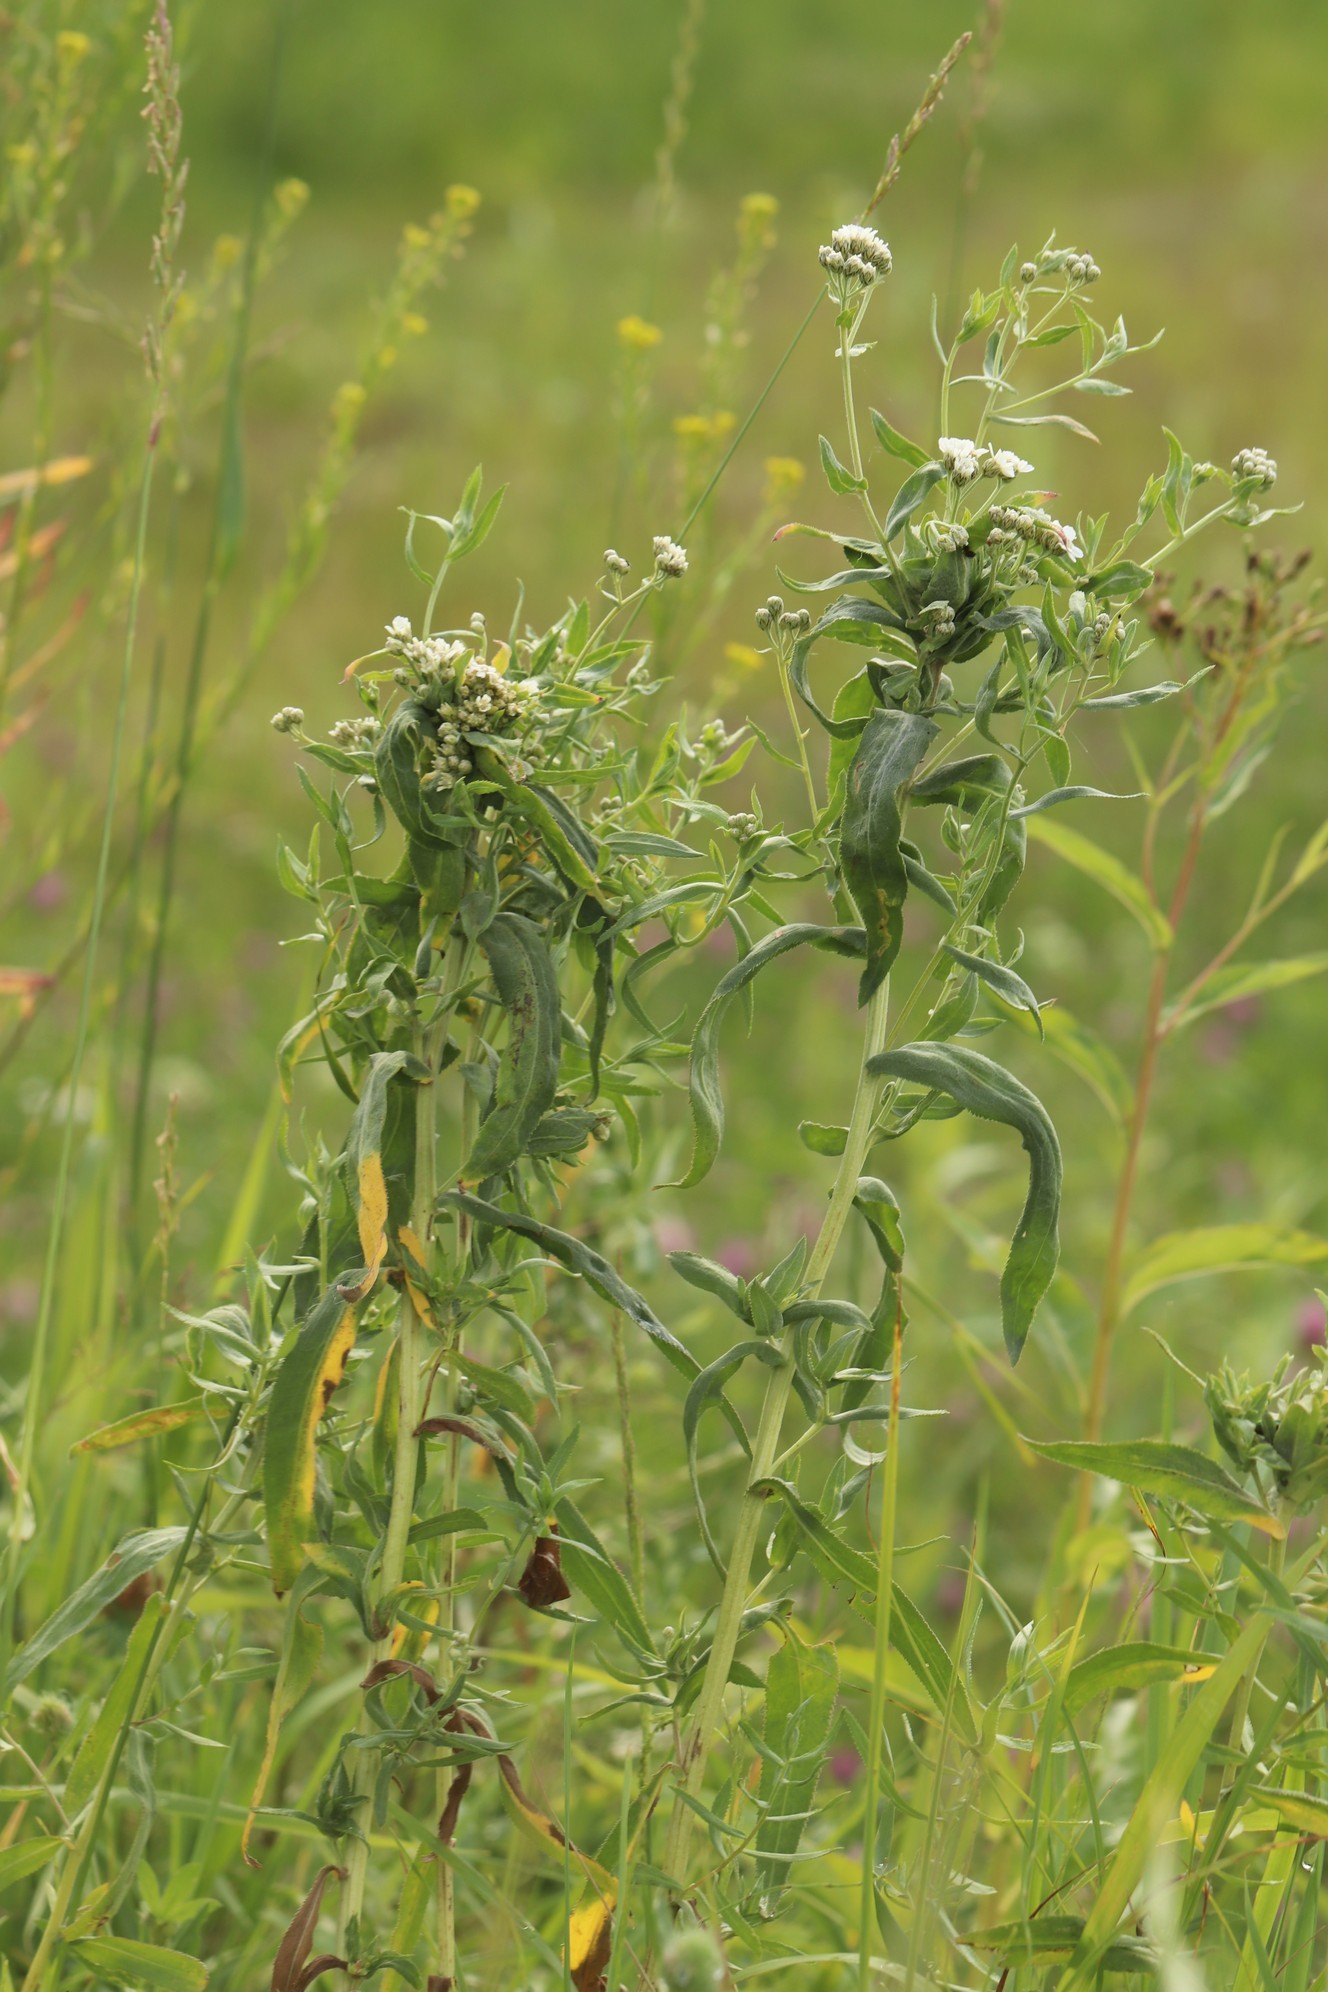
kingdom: Plantae
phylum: Tracheophyta
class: Magnoliopsida
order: Asterales
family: Asteraceae
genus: Achillea
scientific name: Achillea salicifolia
